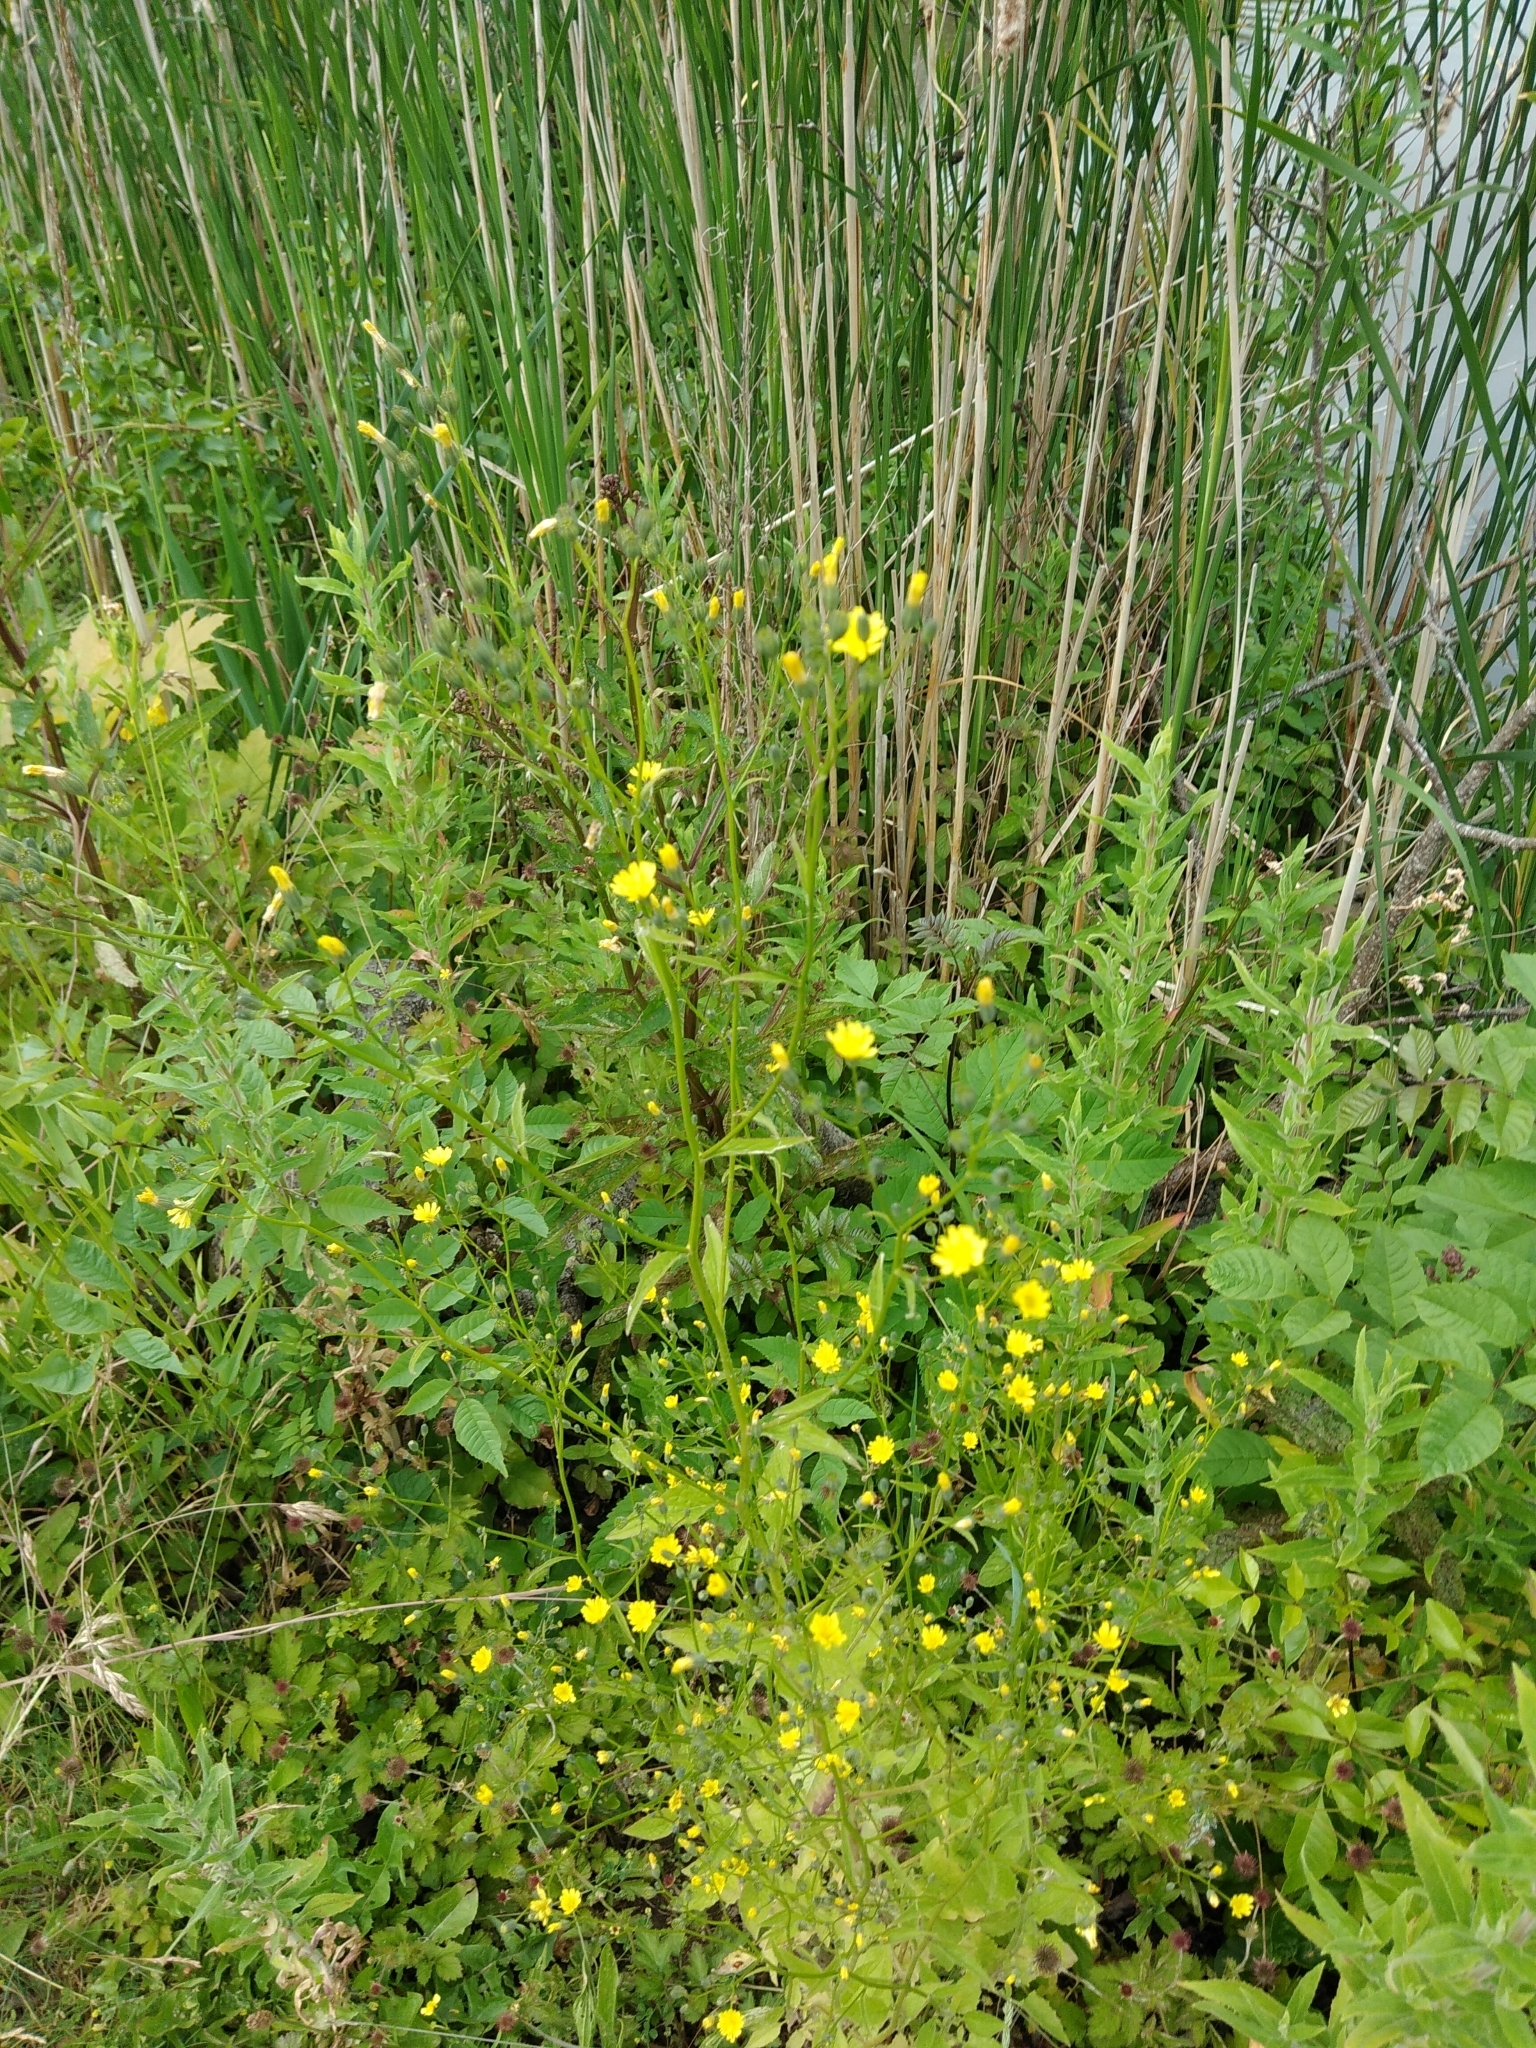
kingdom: Plantae
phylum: Tracheophyta
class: Magnoliopsida
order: Asterales
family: Asteraceae
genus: Lapsana
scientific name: Lapsana communis
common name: Nipplewort
